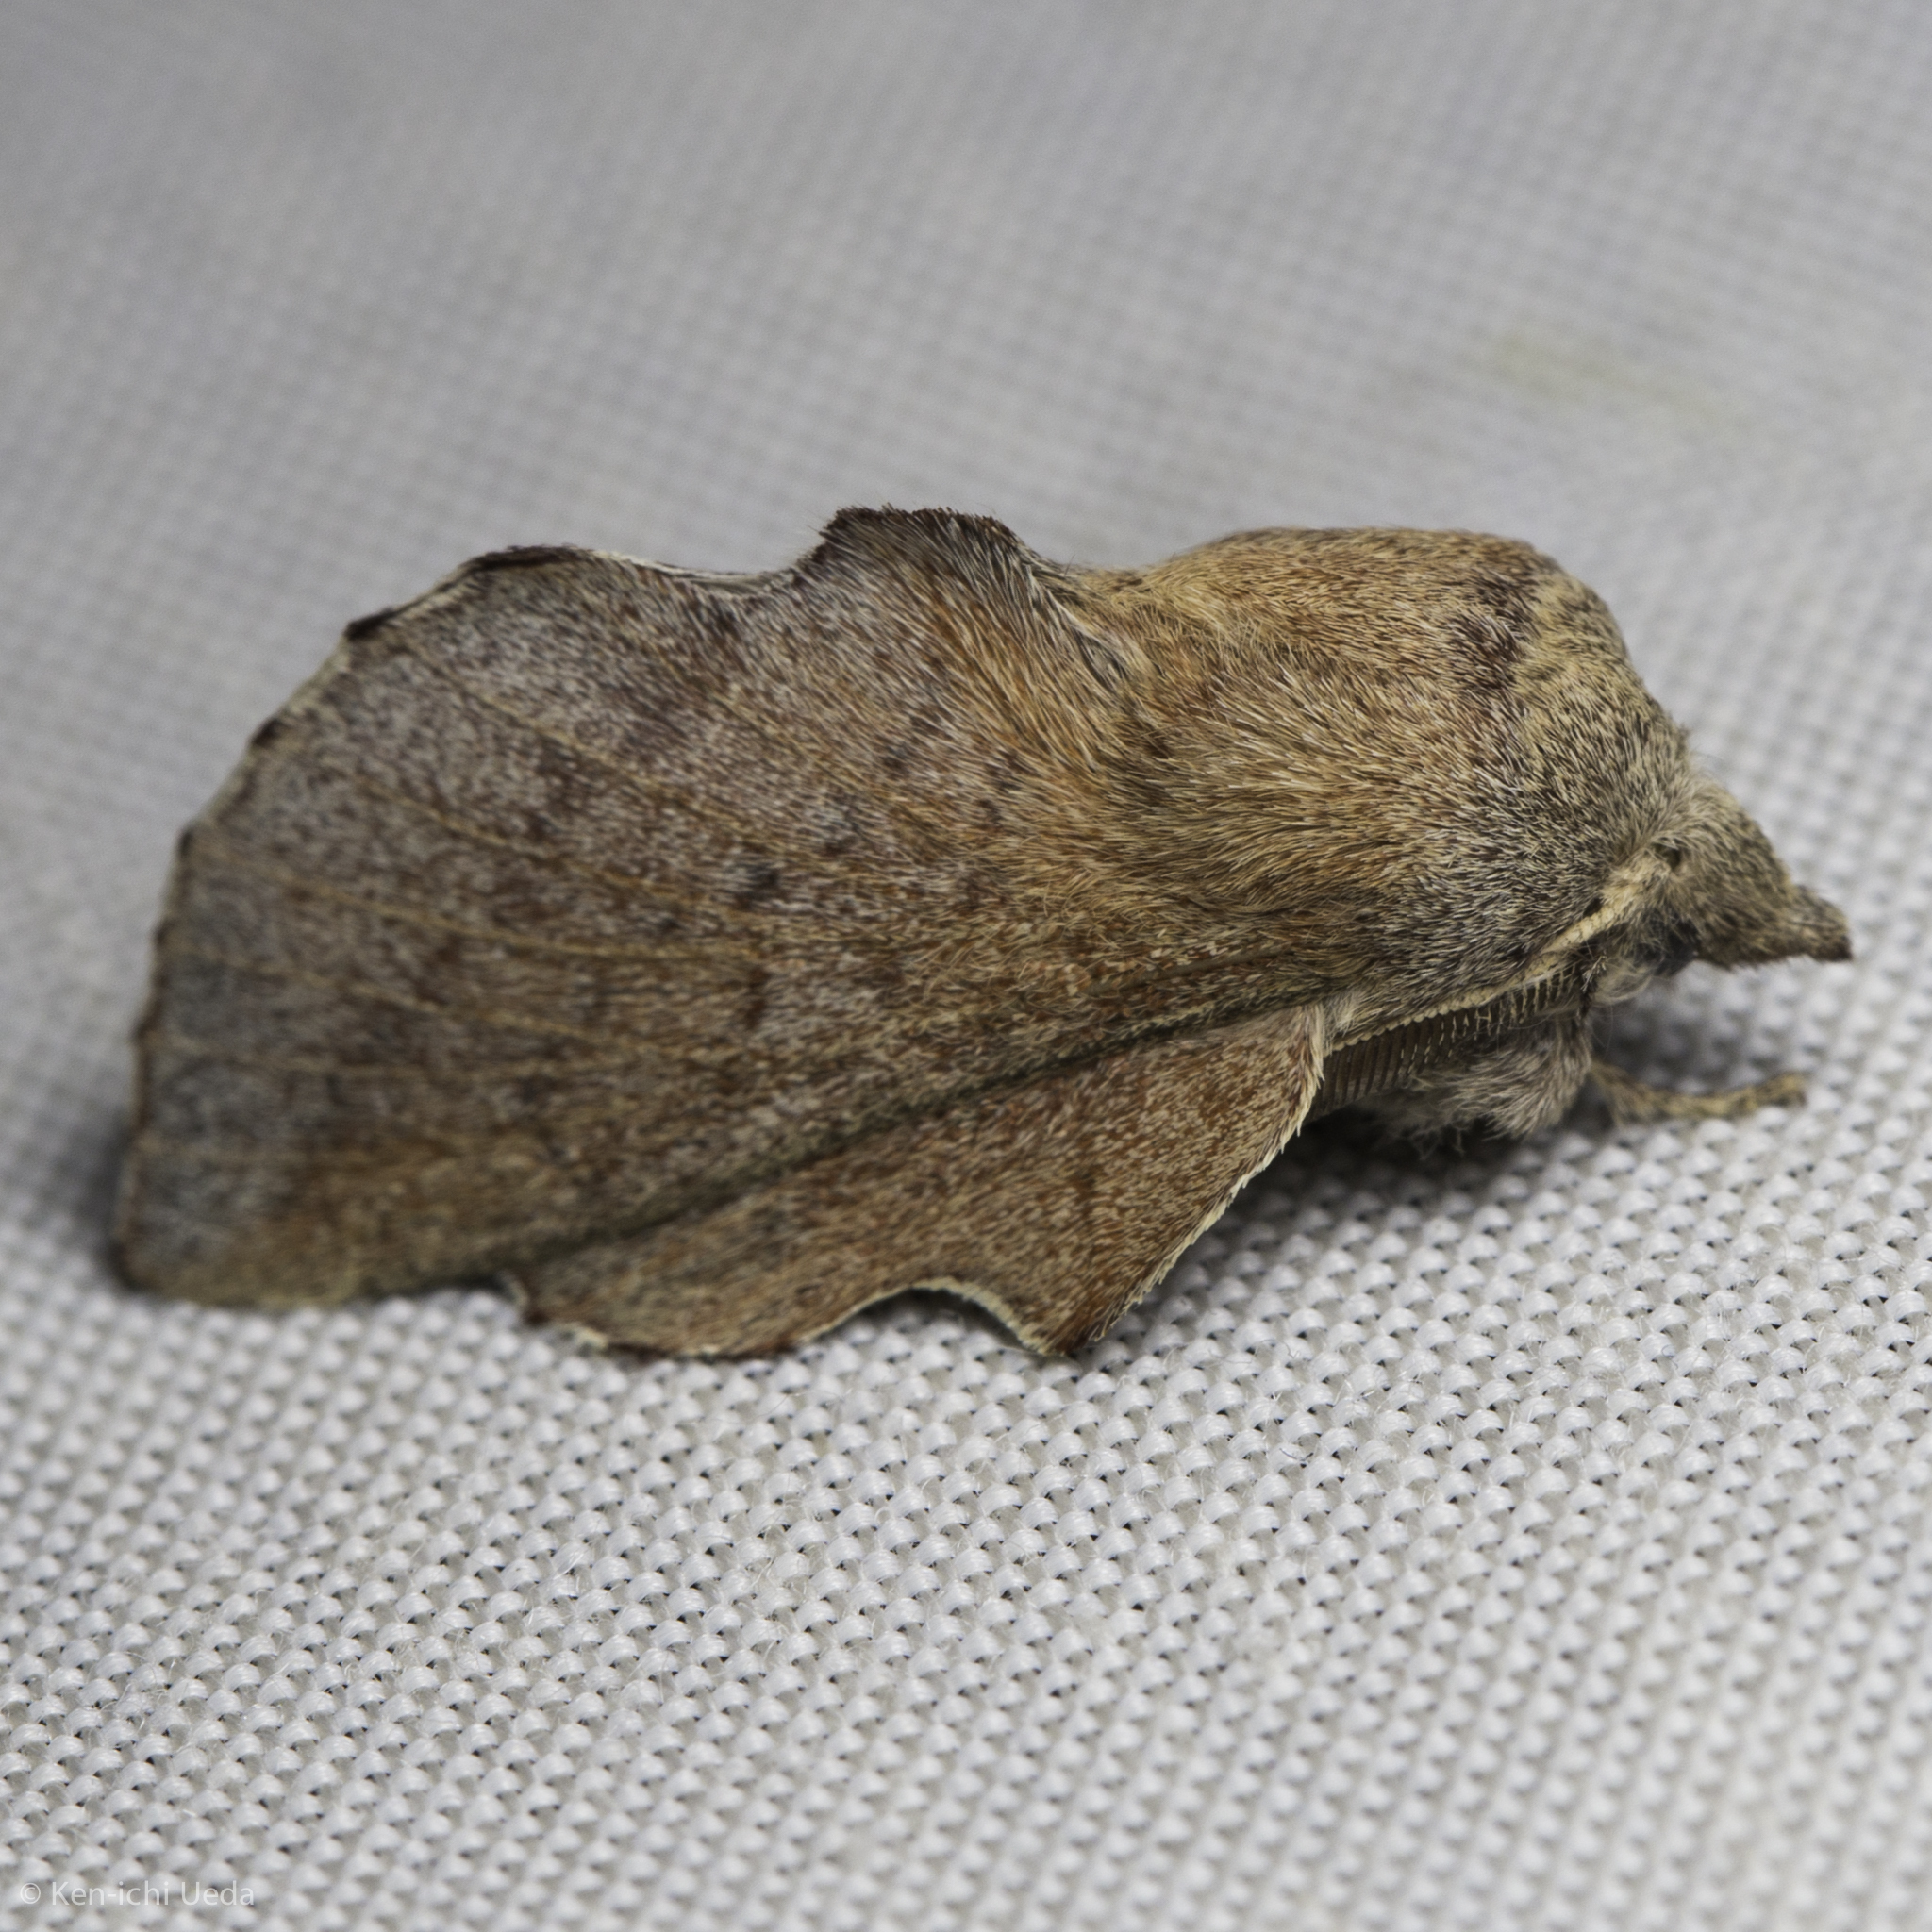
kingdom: Animalia
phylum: Arthropoda
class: Insecta
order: Lepidoptera
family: Lasiocampidae
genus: Phyllodesma
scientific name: Phyllodesma americana
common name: American lappet moth
